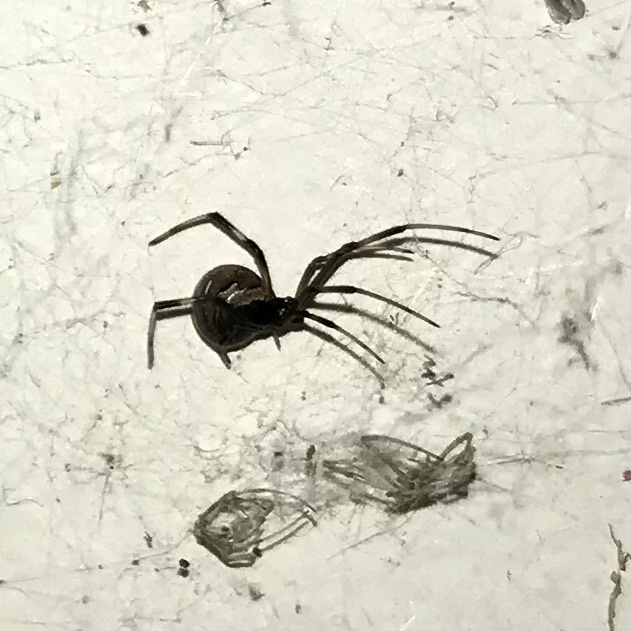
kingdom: Animalia
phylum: Arthropoda
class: Arachnida
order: Araneae
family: Theridiidae
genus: Latrodectus
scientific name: Latrodectus hasselti
